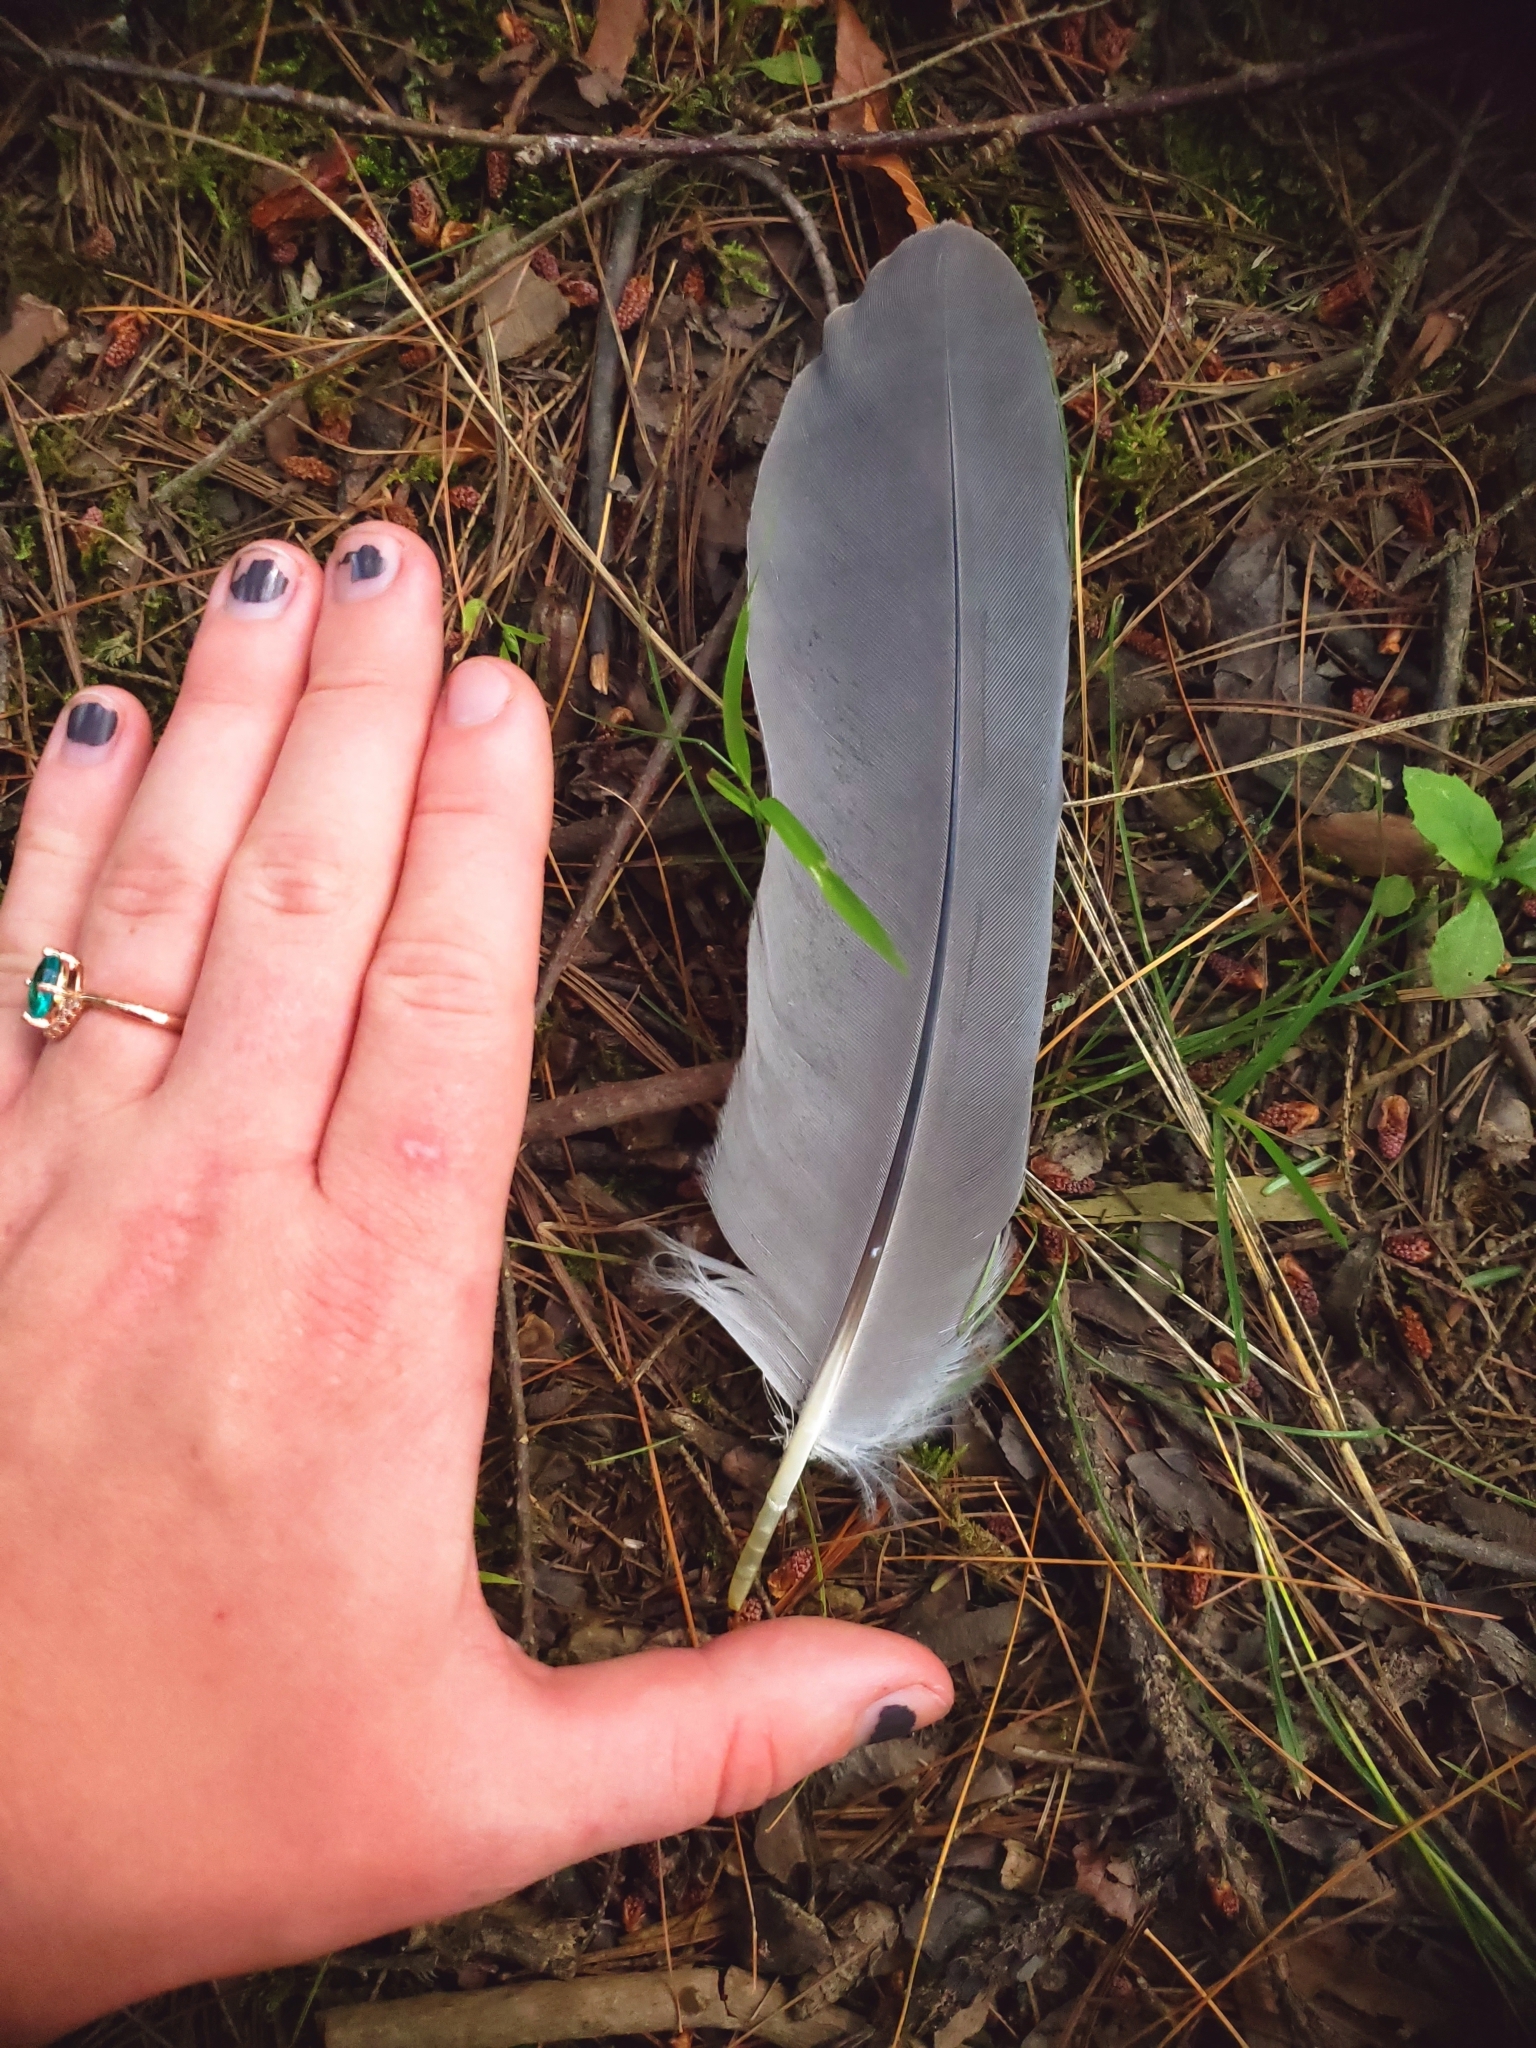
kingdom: Animalia
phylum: Chordata
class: Aves
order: Pelecaniformes
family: Ardeidae
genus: Ardea
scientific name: Ardea herodias
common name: Great blue heron
